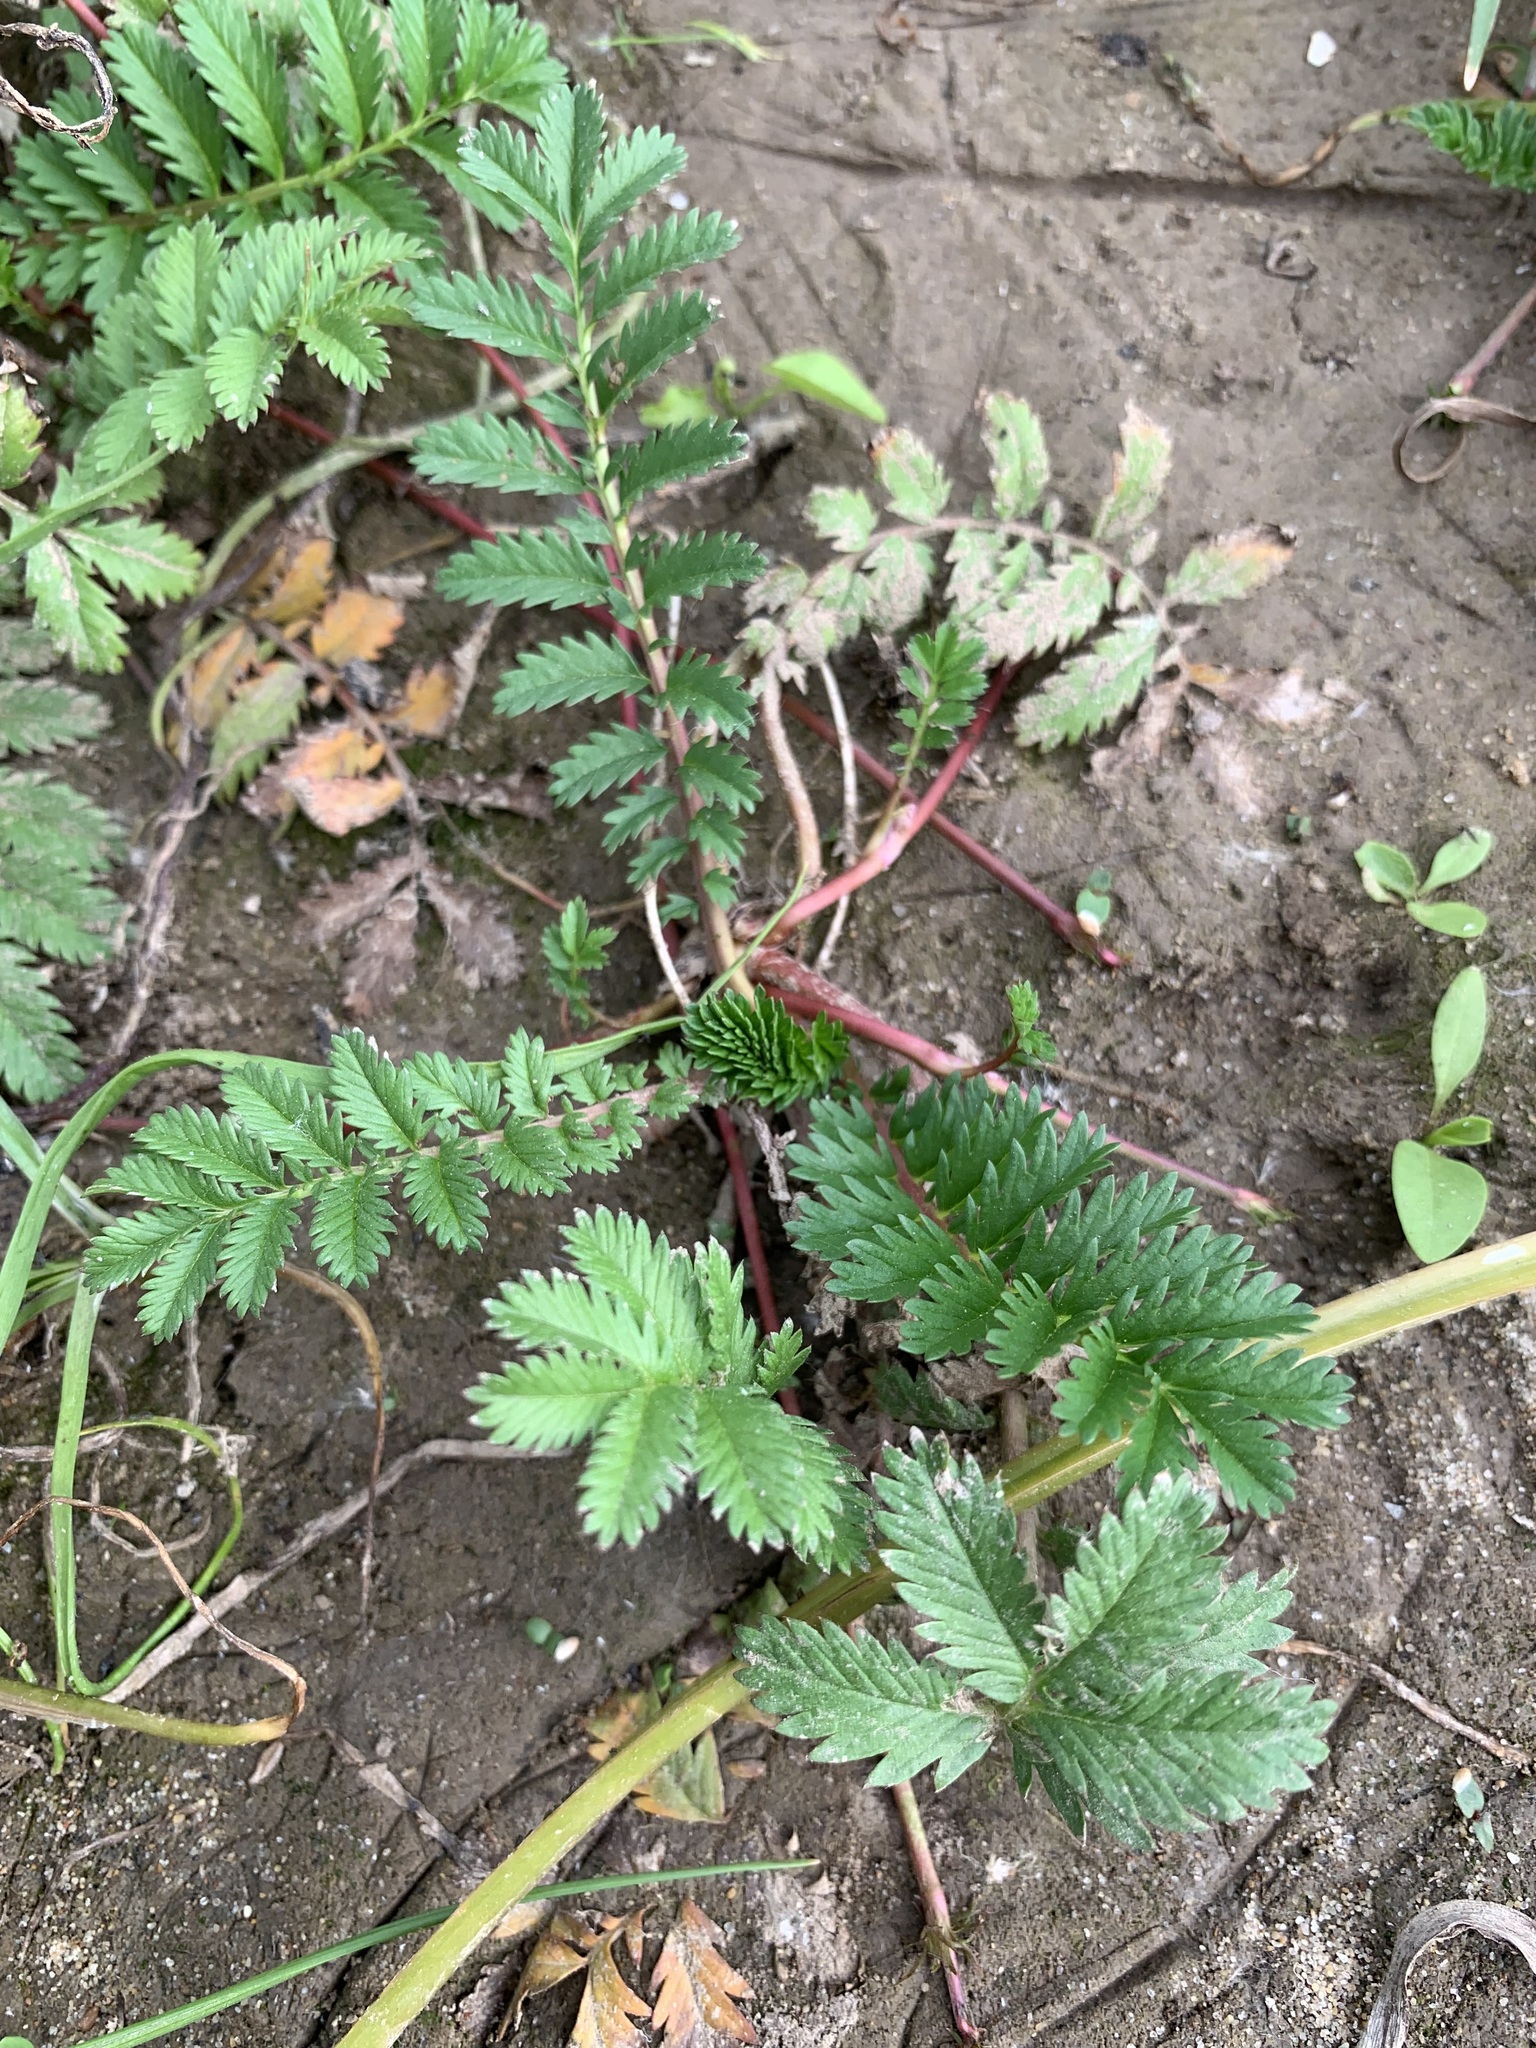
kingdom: Plantae
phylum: Tracheophyta
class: Magnoliopsida
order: Rosales
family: Rosaceae
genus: Argentina
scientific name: Argentina anserina
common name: Common silverweed
